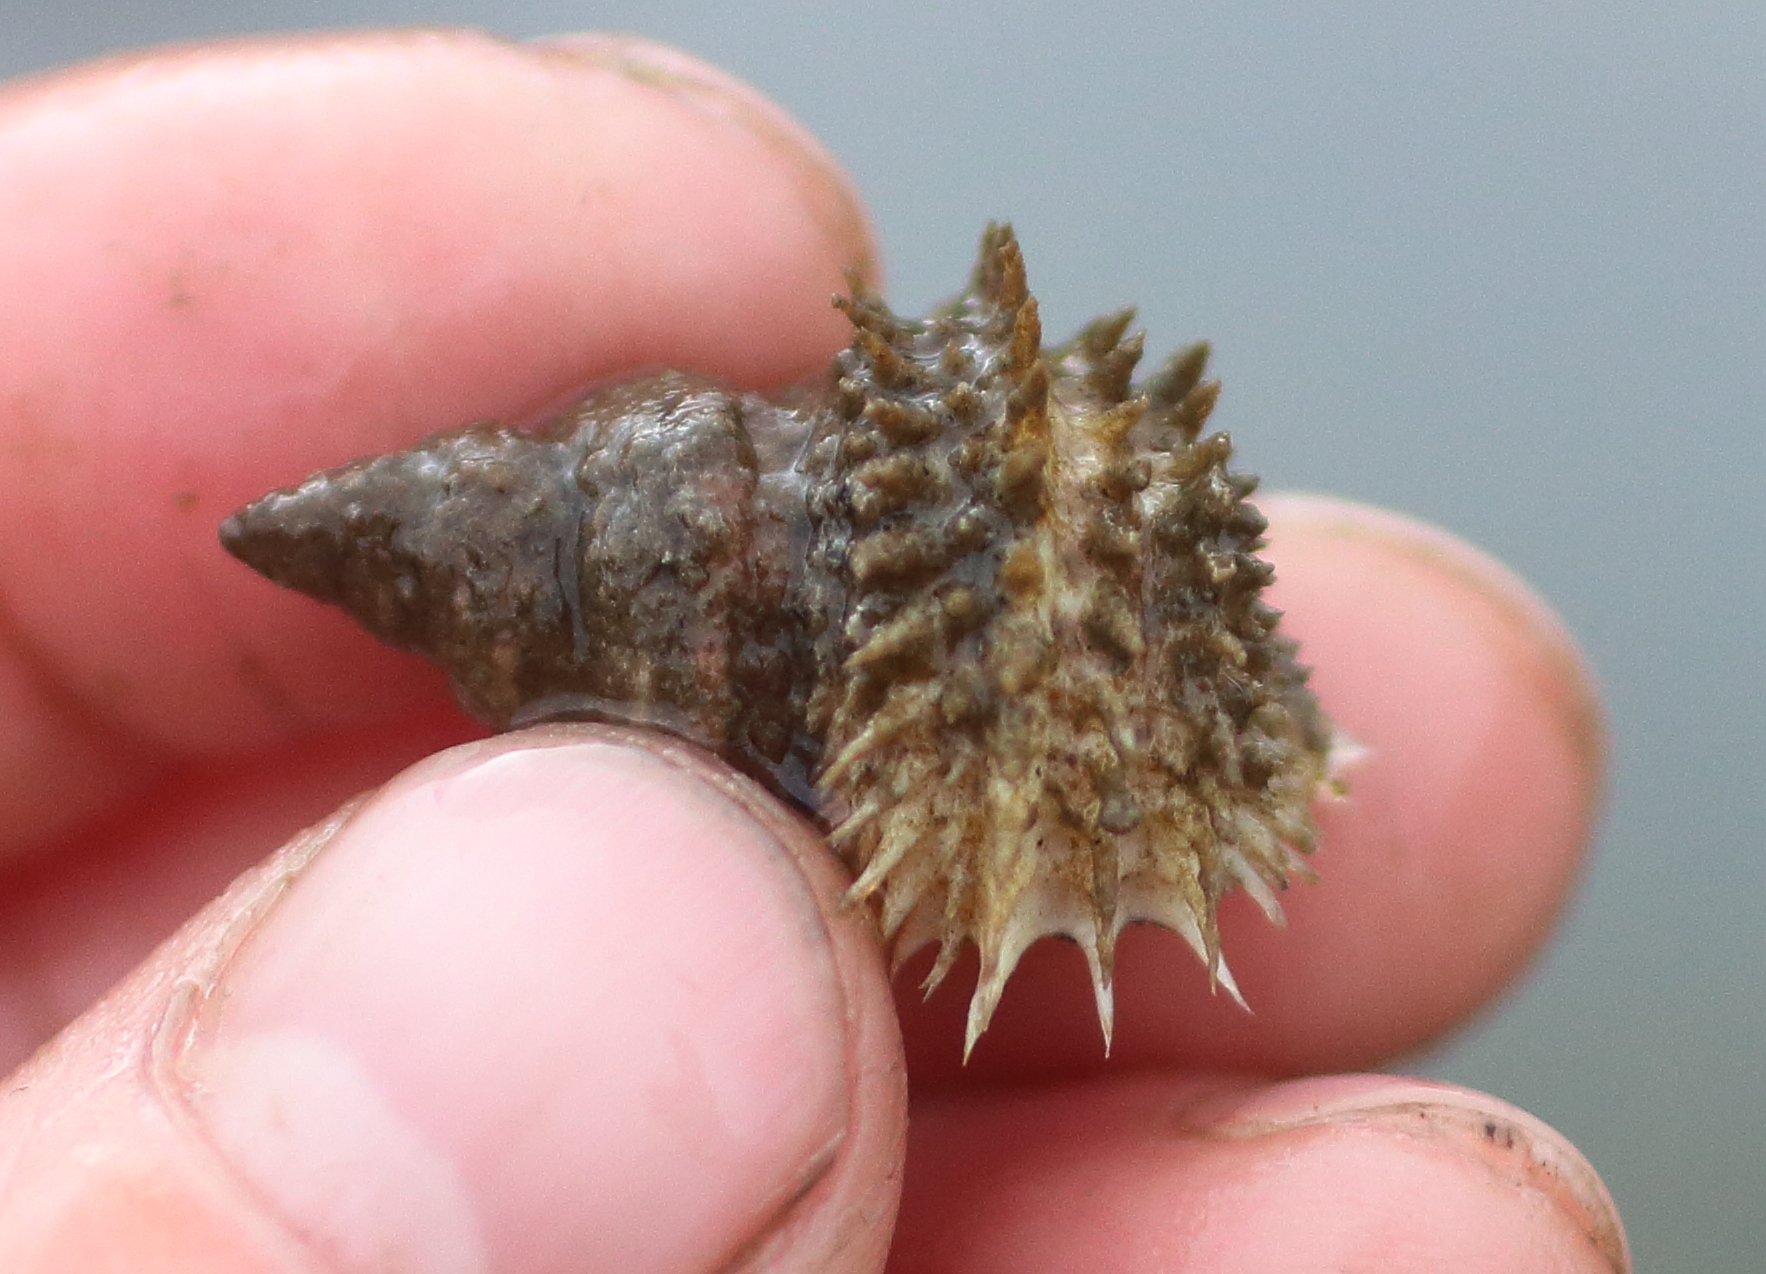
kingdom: Animalia
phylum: Mollusca
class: Gastropoda
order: Littorinimorpha
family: Capulidae
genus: Trichotropis
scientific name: Trichotropis cancellata
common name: Cancellate hairysnail
